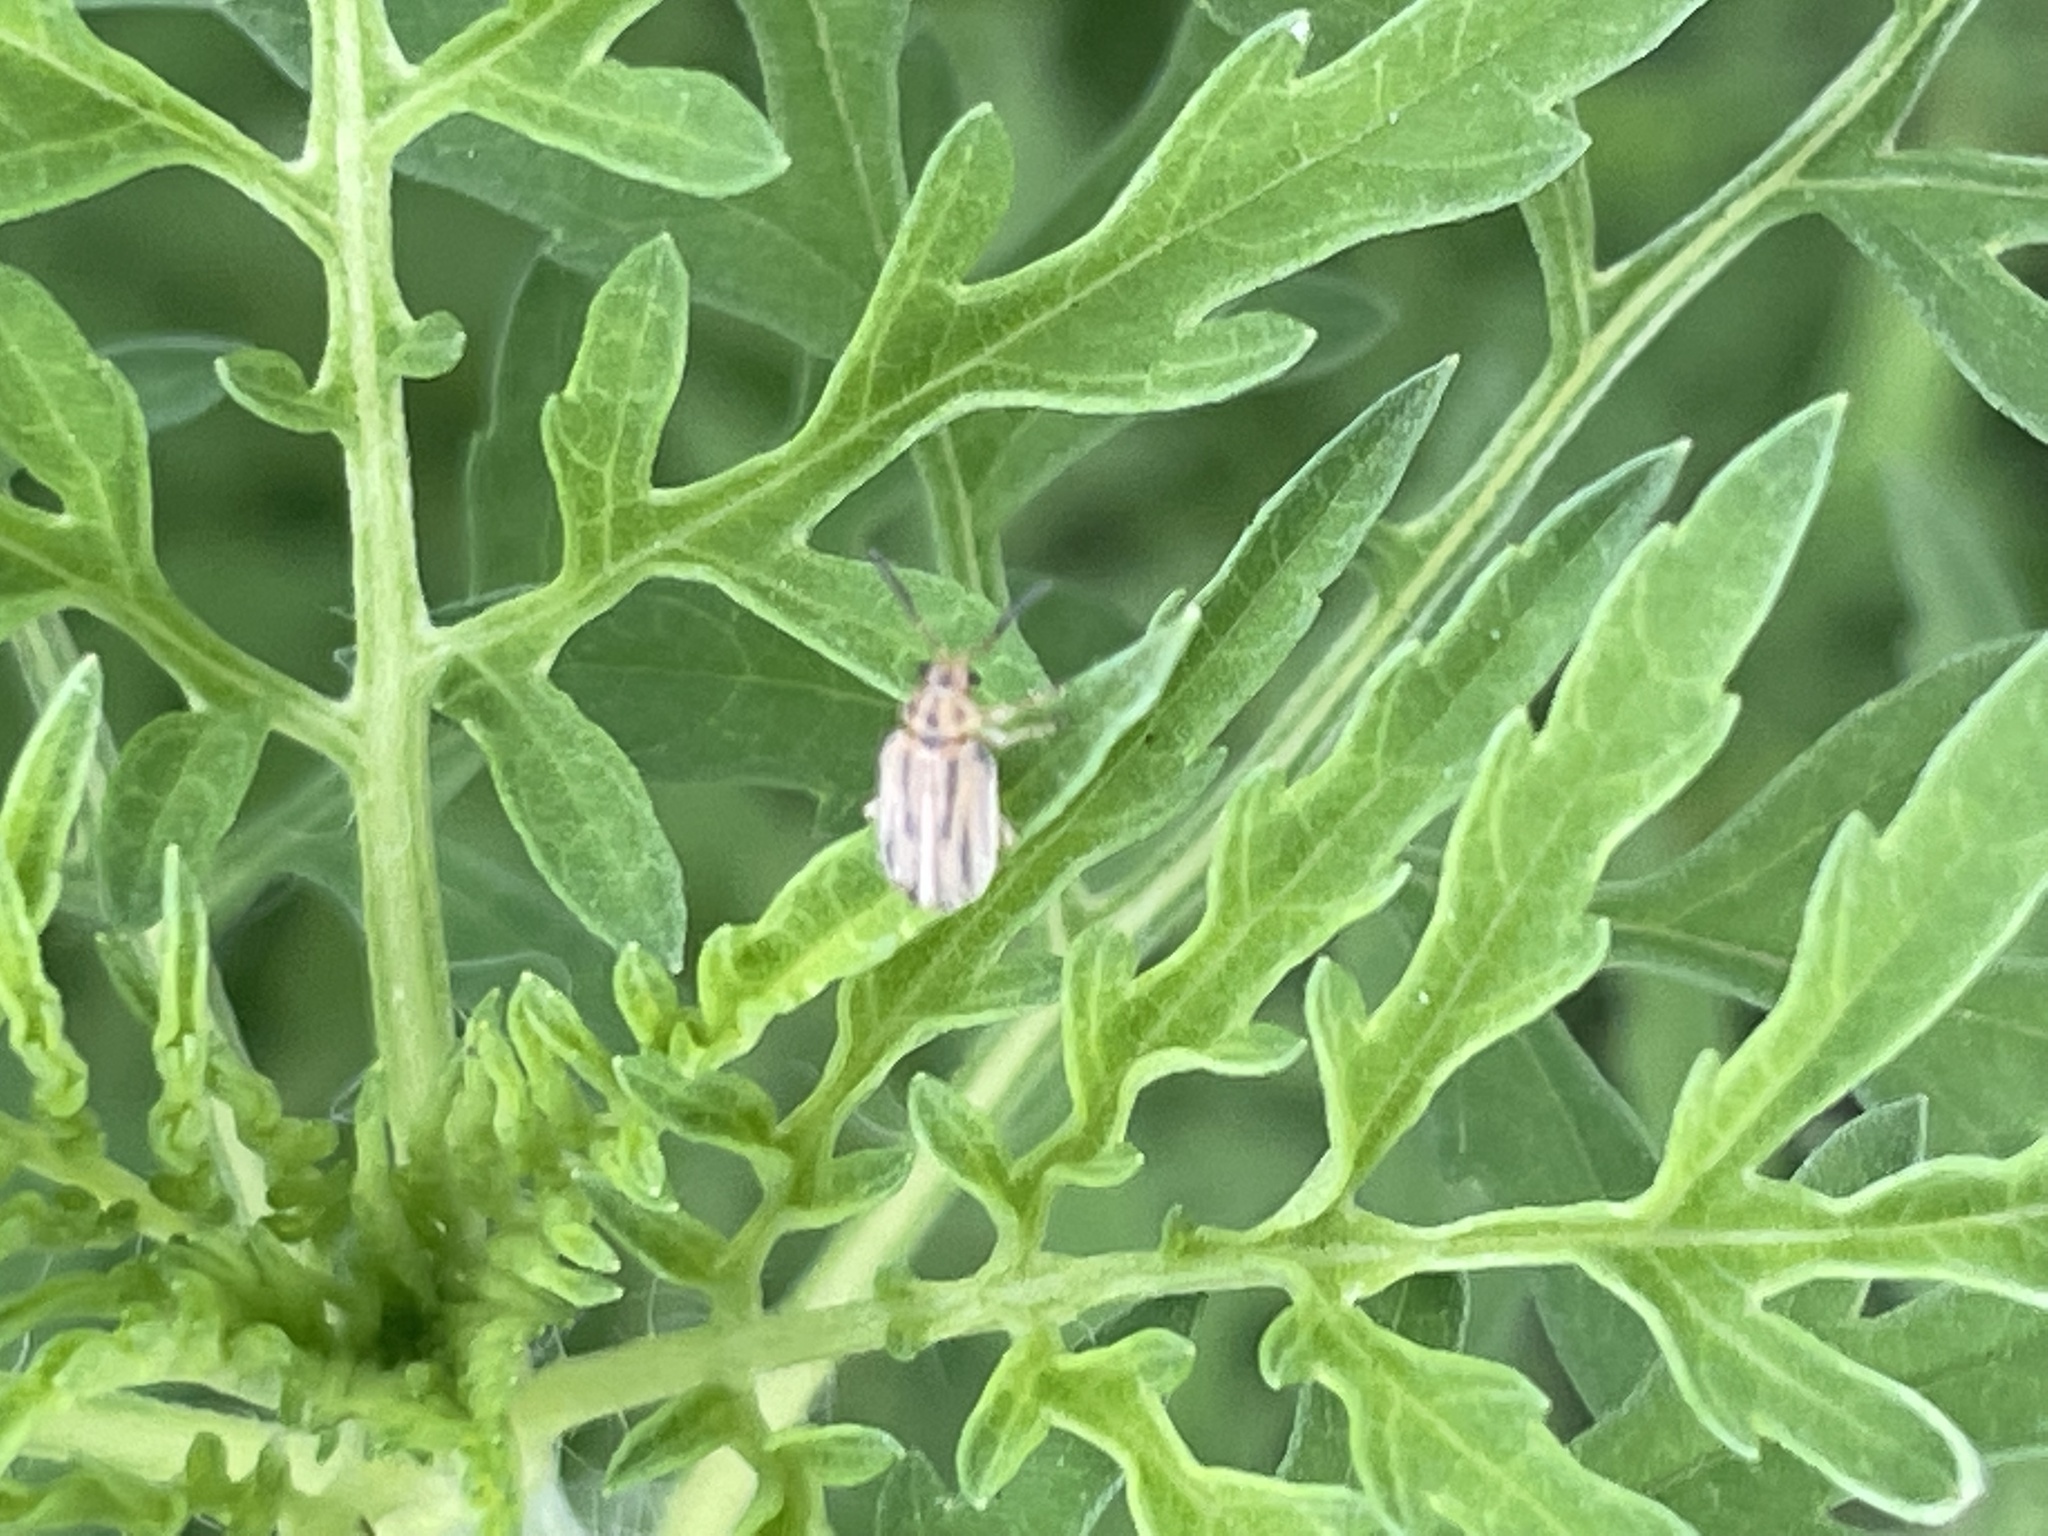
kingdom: Animalia
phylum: Arthropoda
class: Insecta
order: Coleoptera
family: Chrysomelidae
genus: Ophraella
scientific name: Ophraella communa
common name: Ragweed leaf beetle
